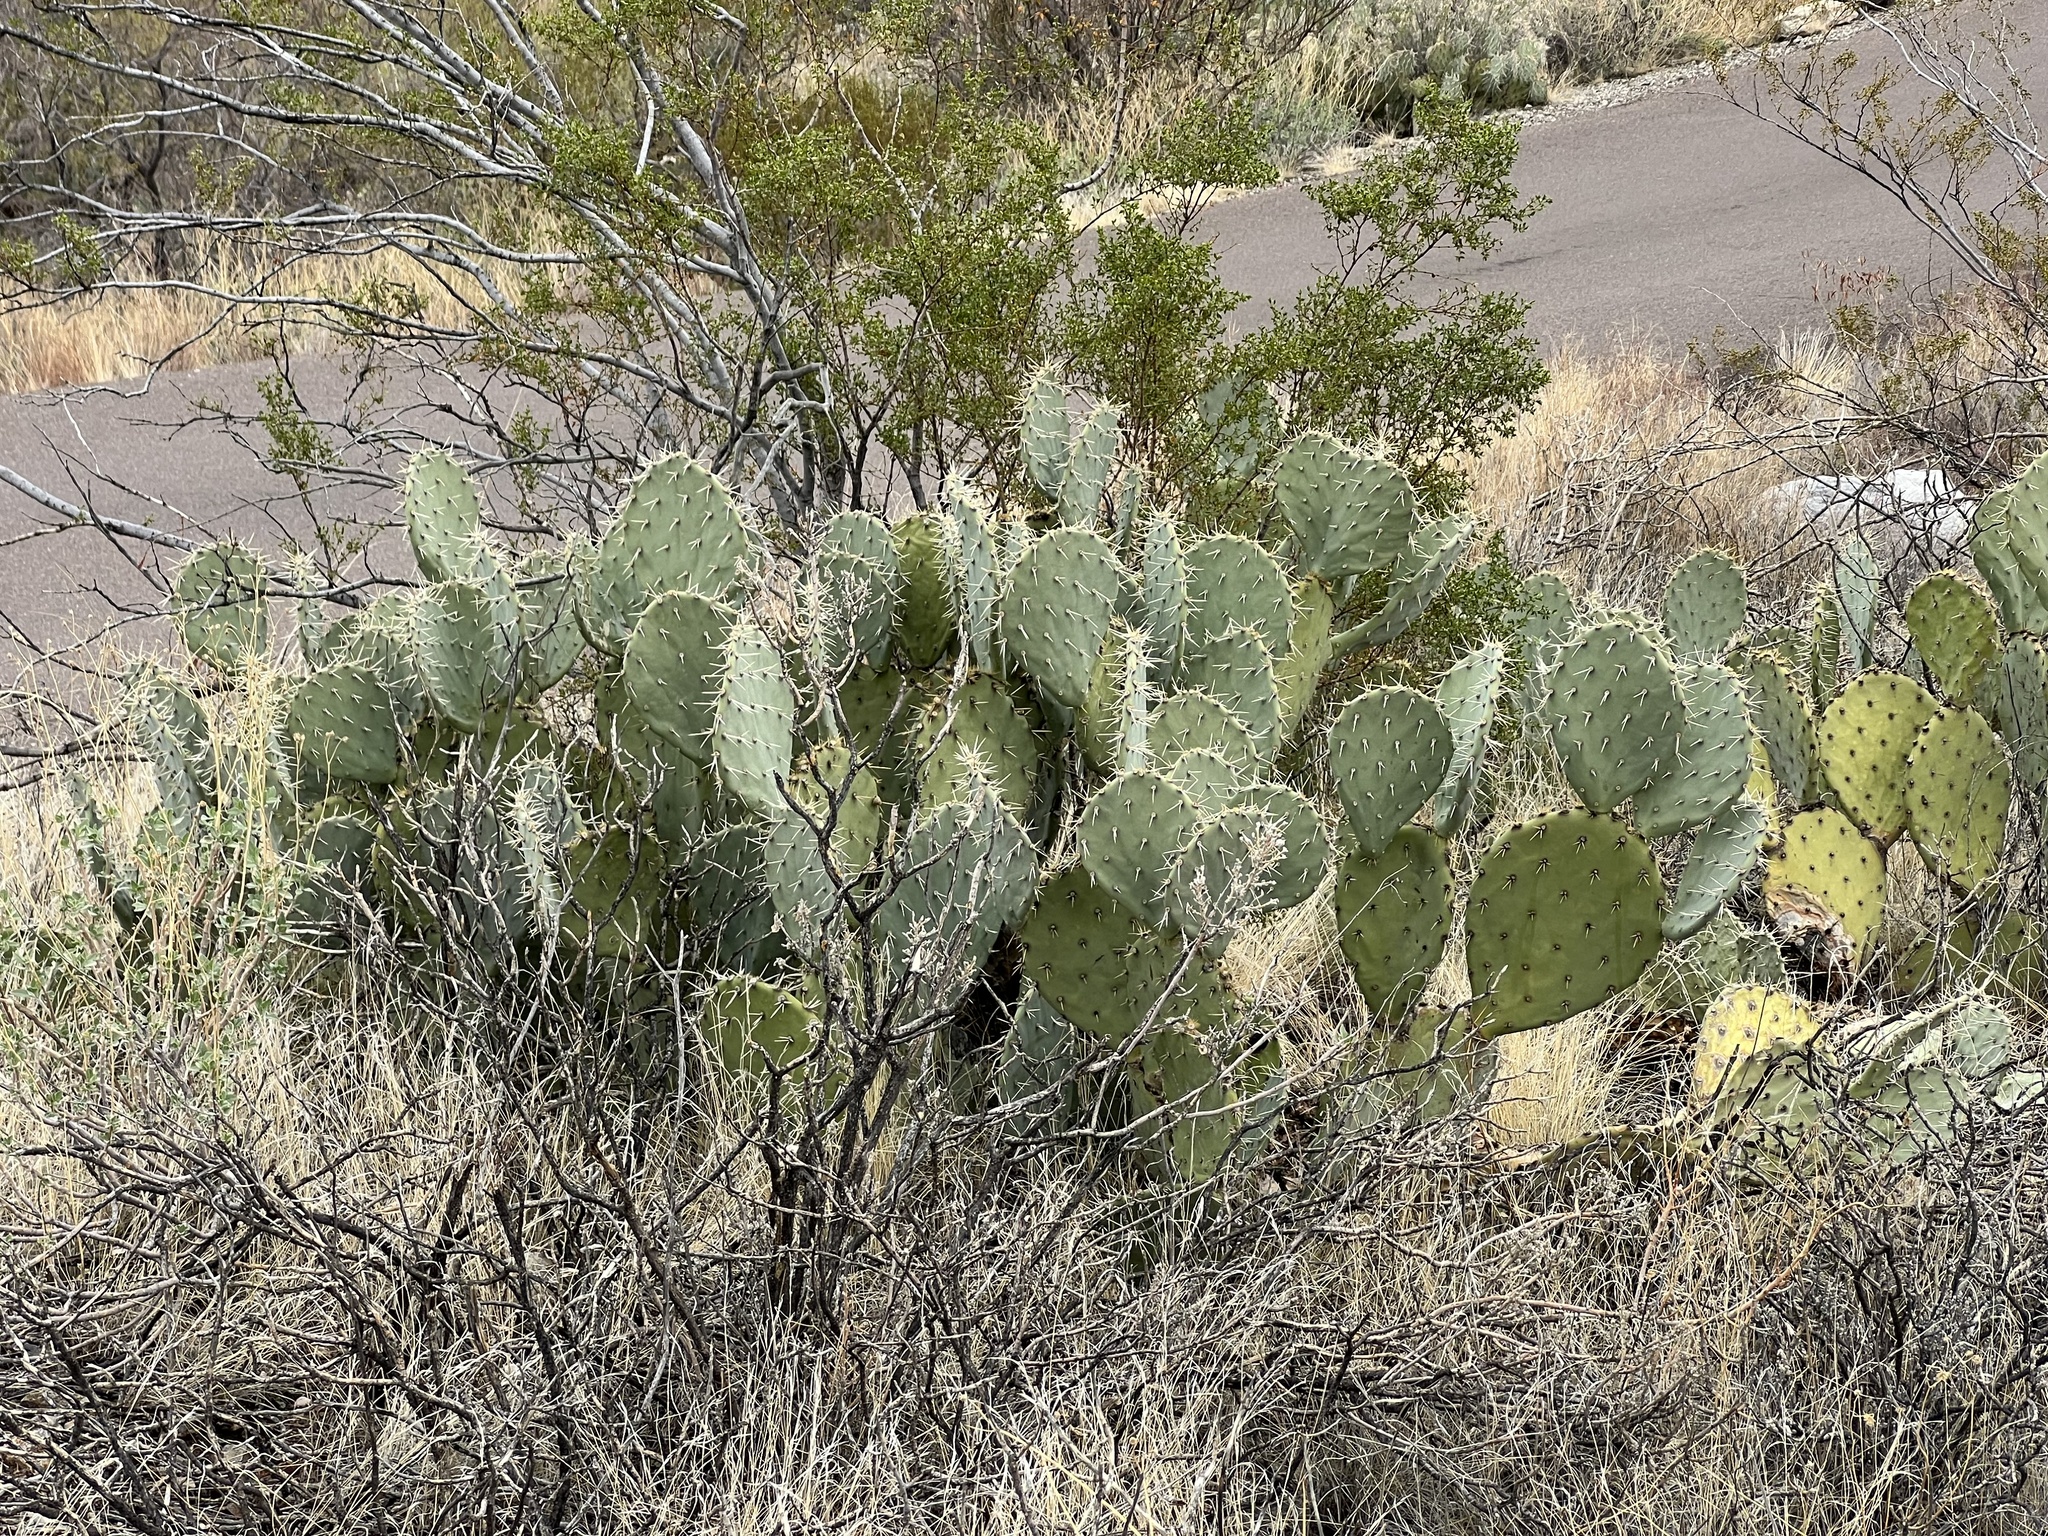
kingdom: Plantae
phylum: Tracheophyta
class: Magnoliopsida
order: Caryophyllales
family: Cactaceae
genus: Opuntia
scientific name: Opuntia engelmannii
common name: Cactus-apple
